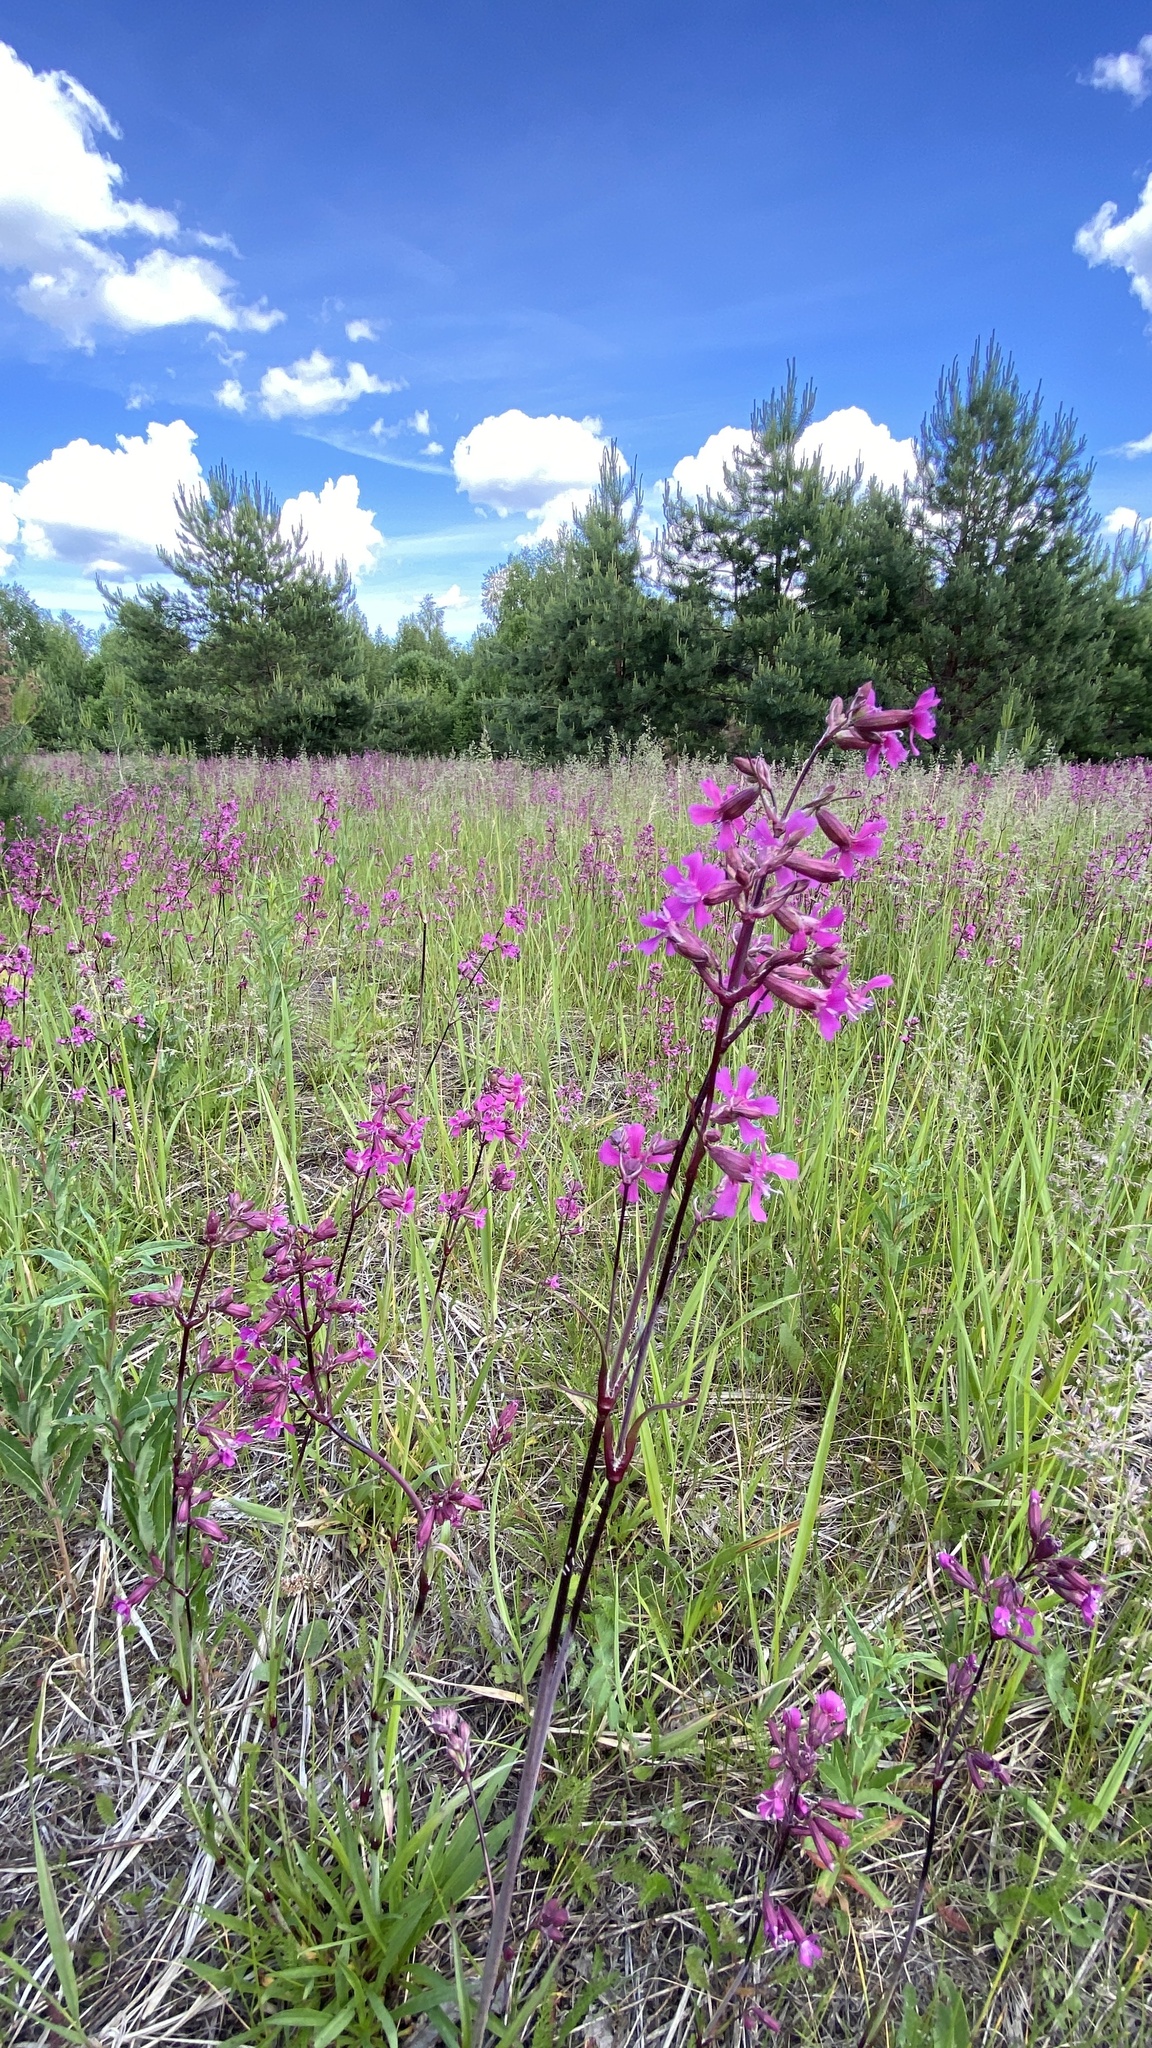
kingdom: Plantae
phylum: Tracheophyta
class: Magnoliopsida
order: Caryophyllales
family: Caryophyllaceae
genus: Viscaria
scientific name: Viscaria vulgaris
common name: Clammy campion
